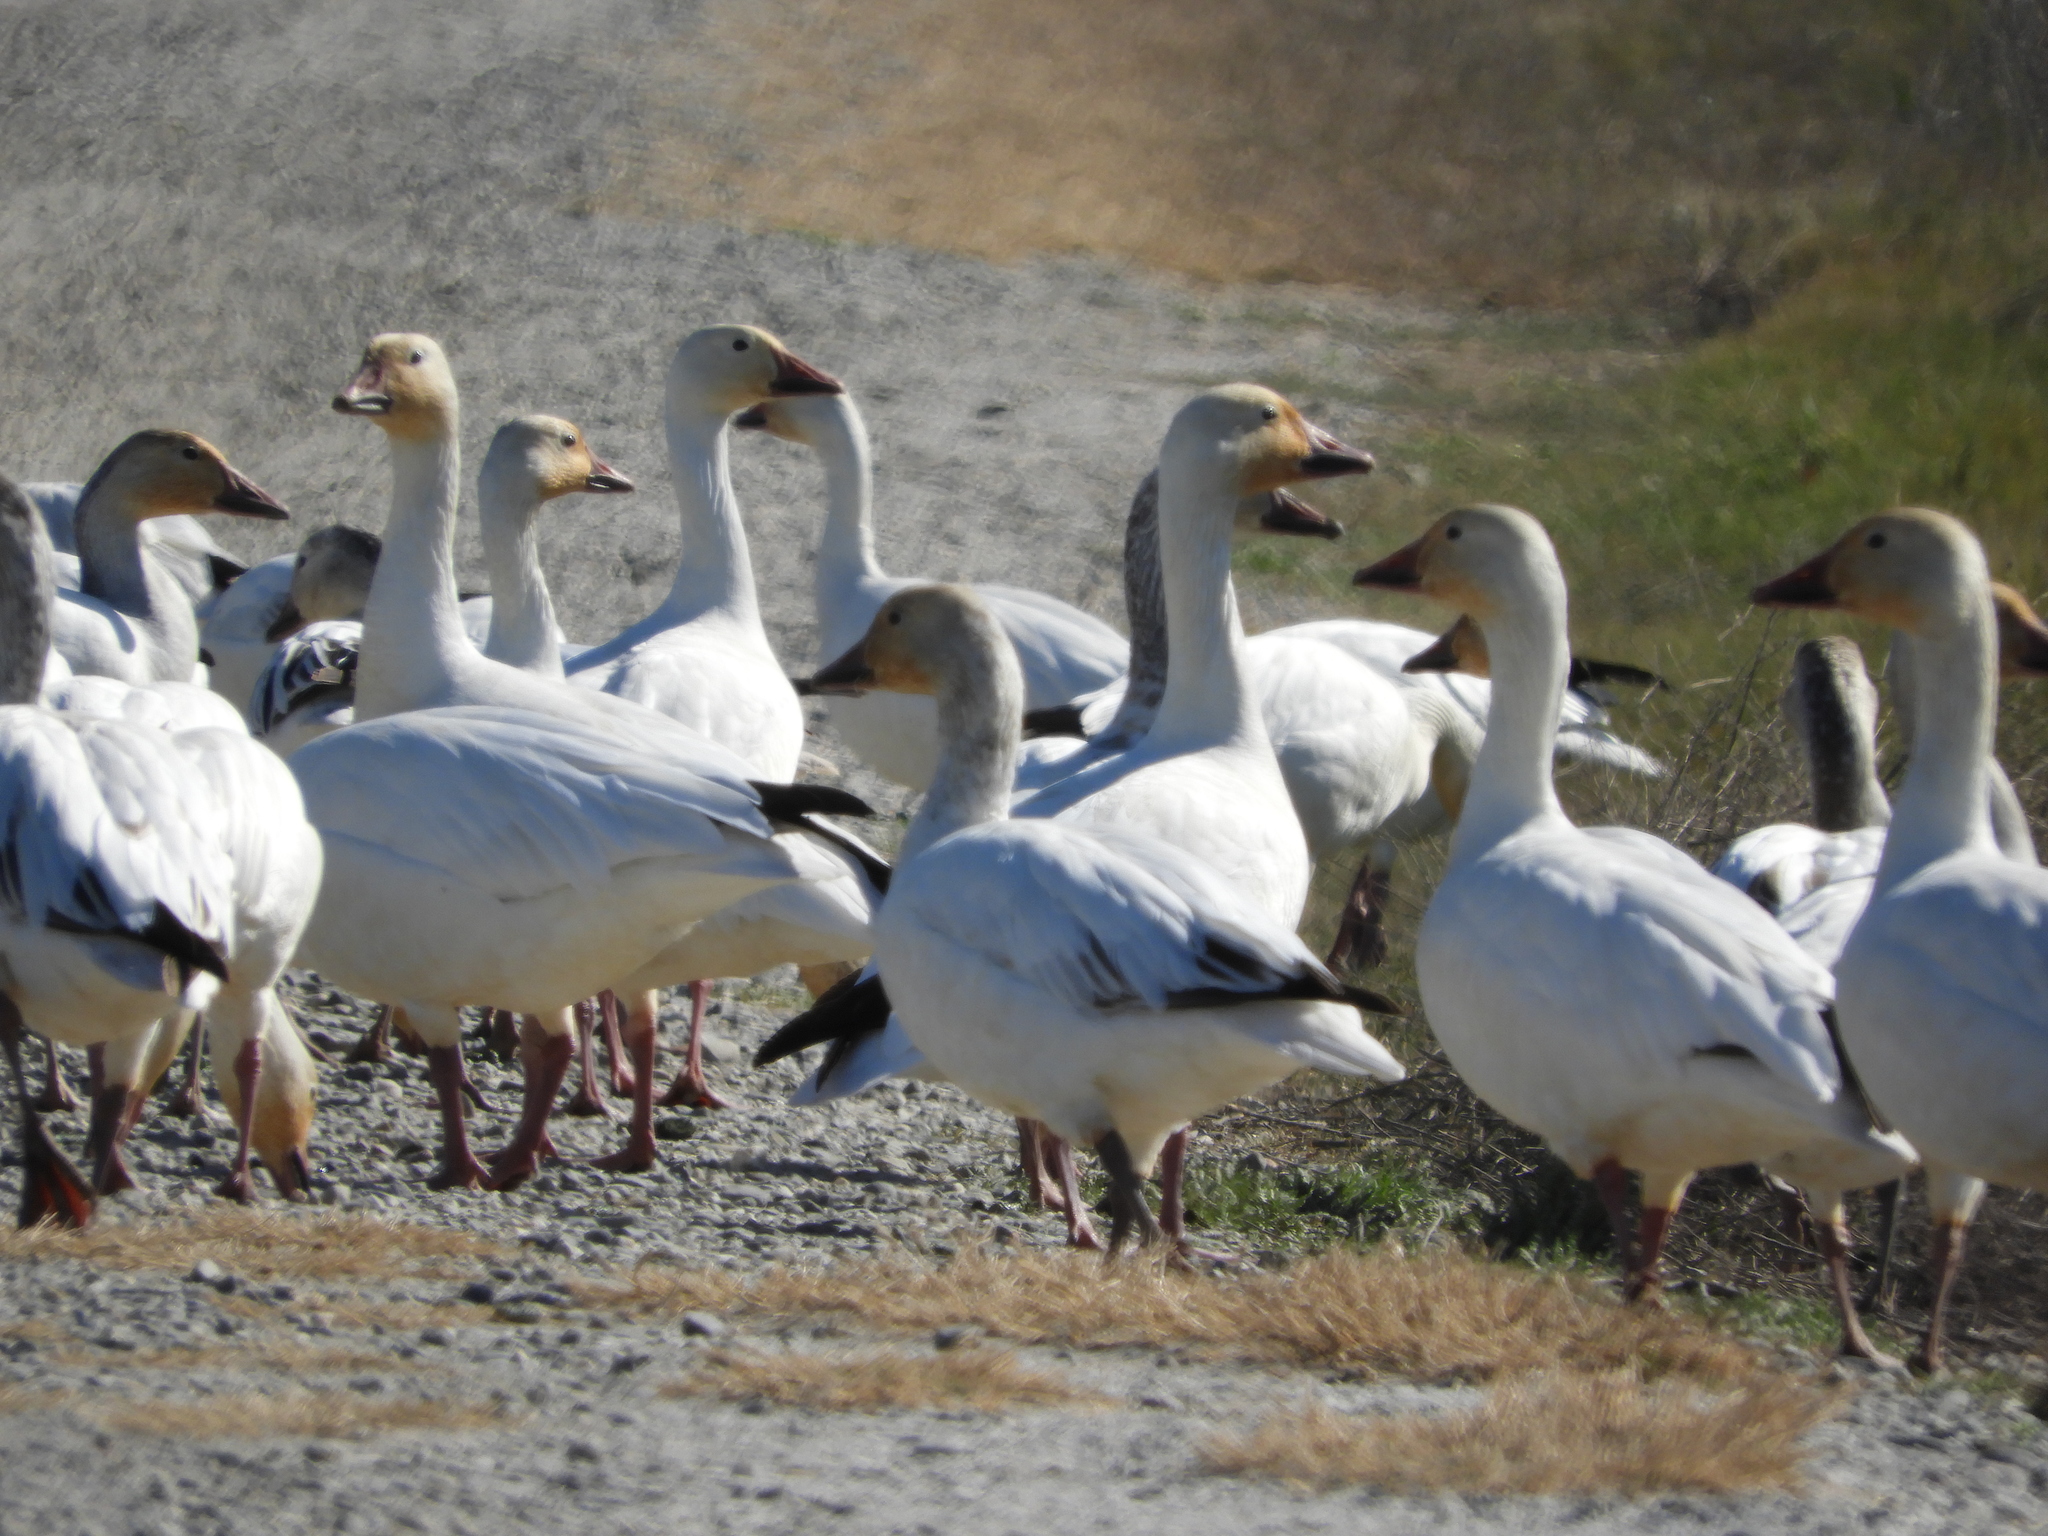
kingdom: Animalia
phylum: Chordata
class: Aves
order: Anseriformes
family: Anatidae
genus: Anser
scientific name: Anser caerulescens
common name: Snow goose
